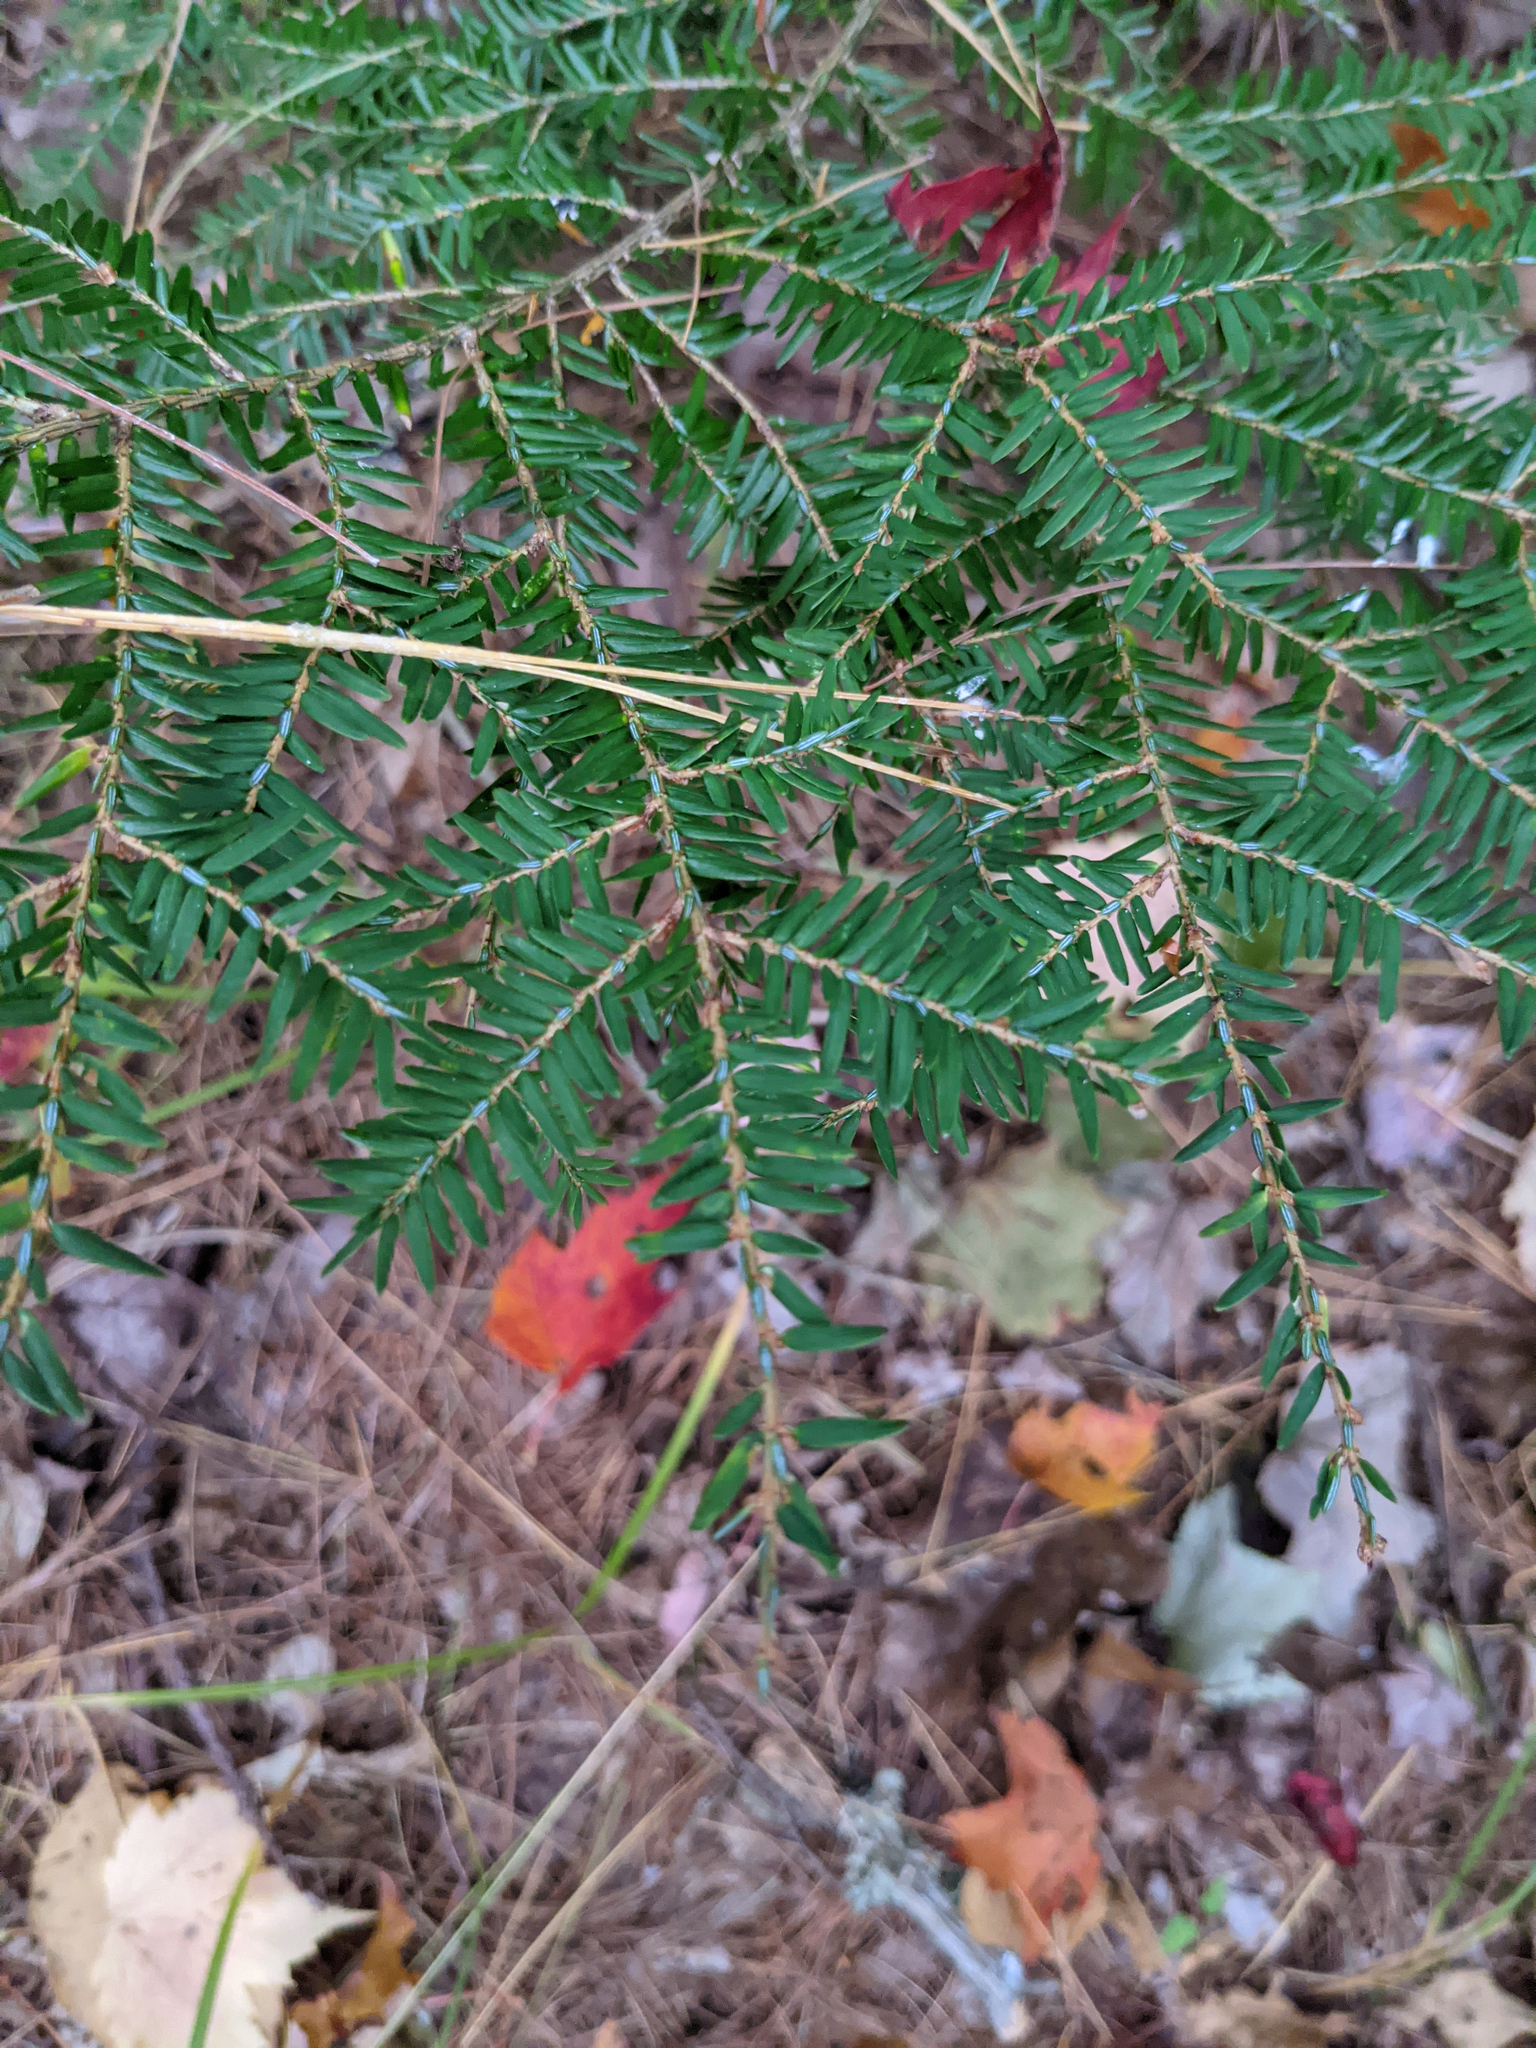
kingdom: Plantae
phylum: Tracheophyta
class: Pinopsida
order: Pinales
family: Pinaceae
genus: Tsuga
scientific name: Tsuga canadensis
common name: Eastern hemlock
